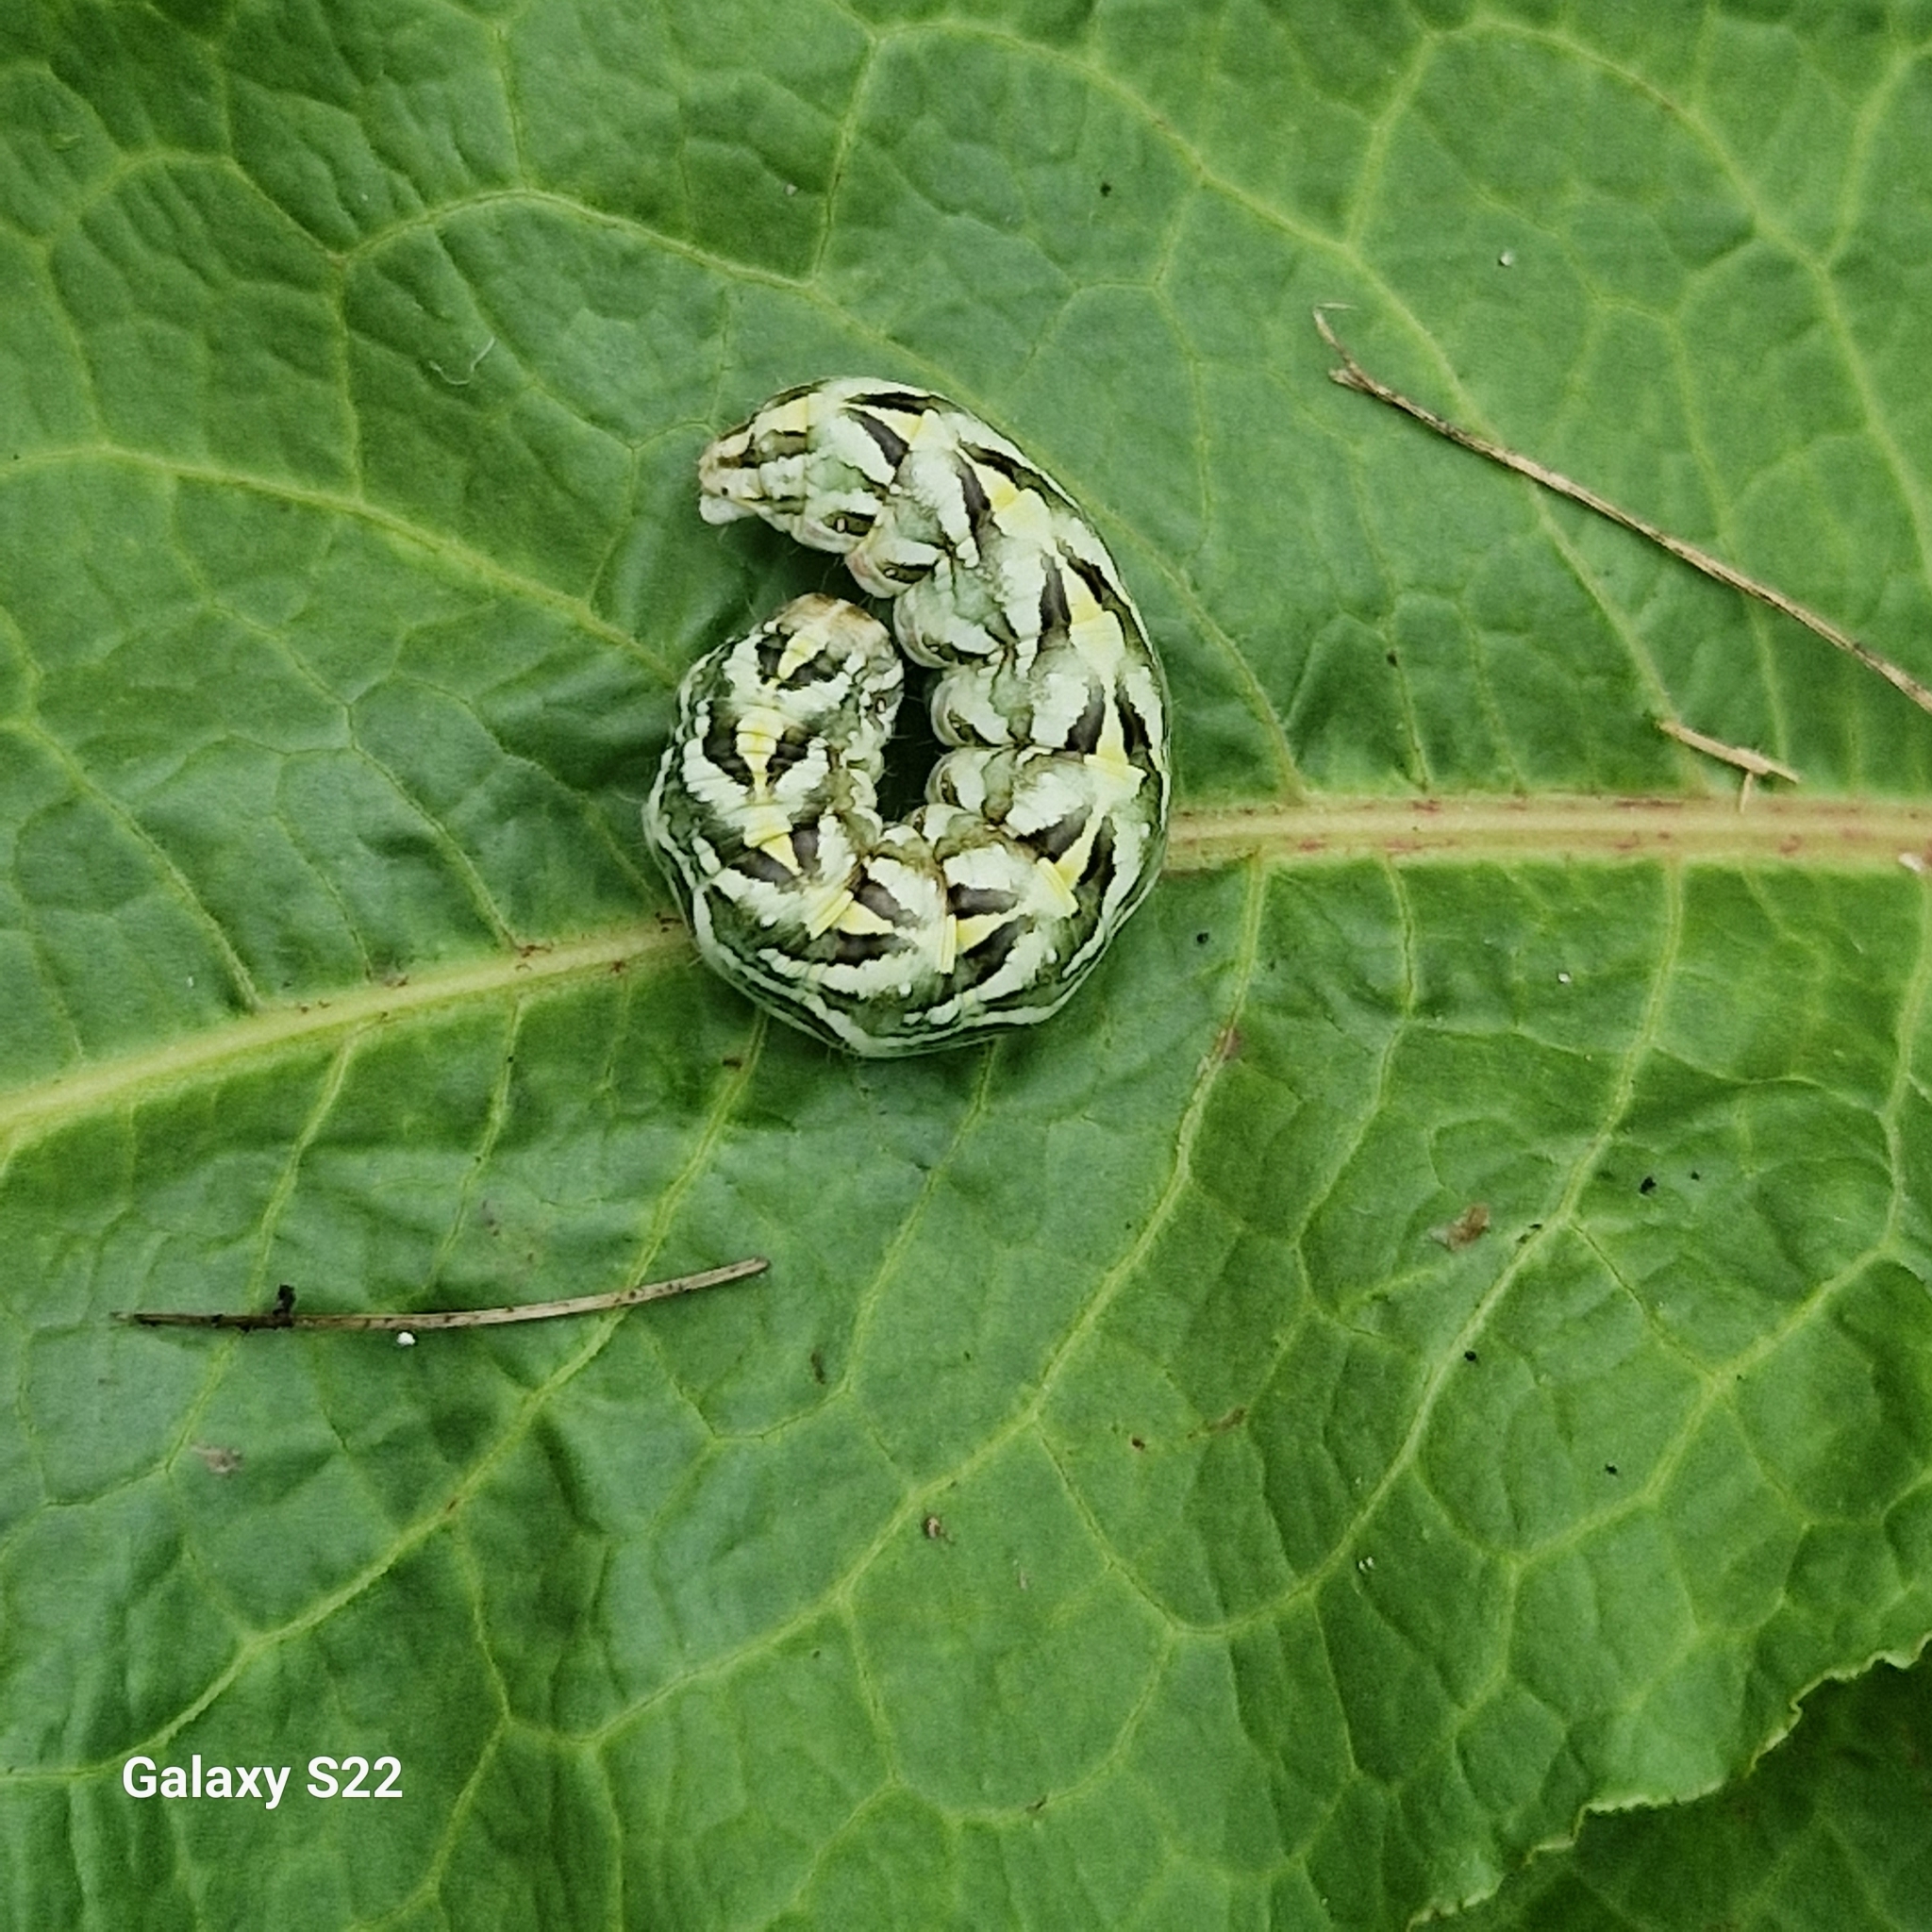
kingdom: Animalia
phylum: Arthropoda
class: Insecta
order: Lepidoptera
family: Noctuidae
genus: Cucullia
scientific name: Cucullia chamomillae
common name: Chamomile shark
